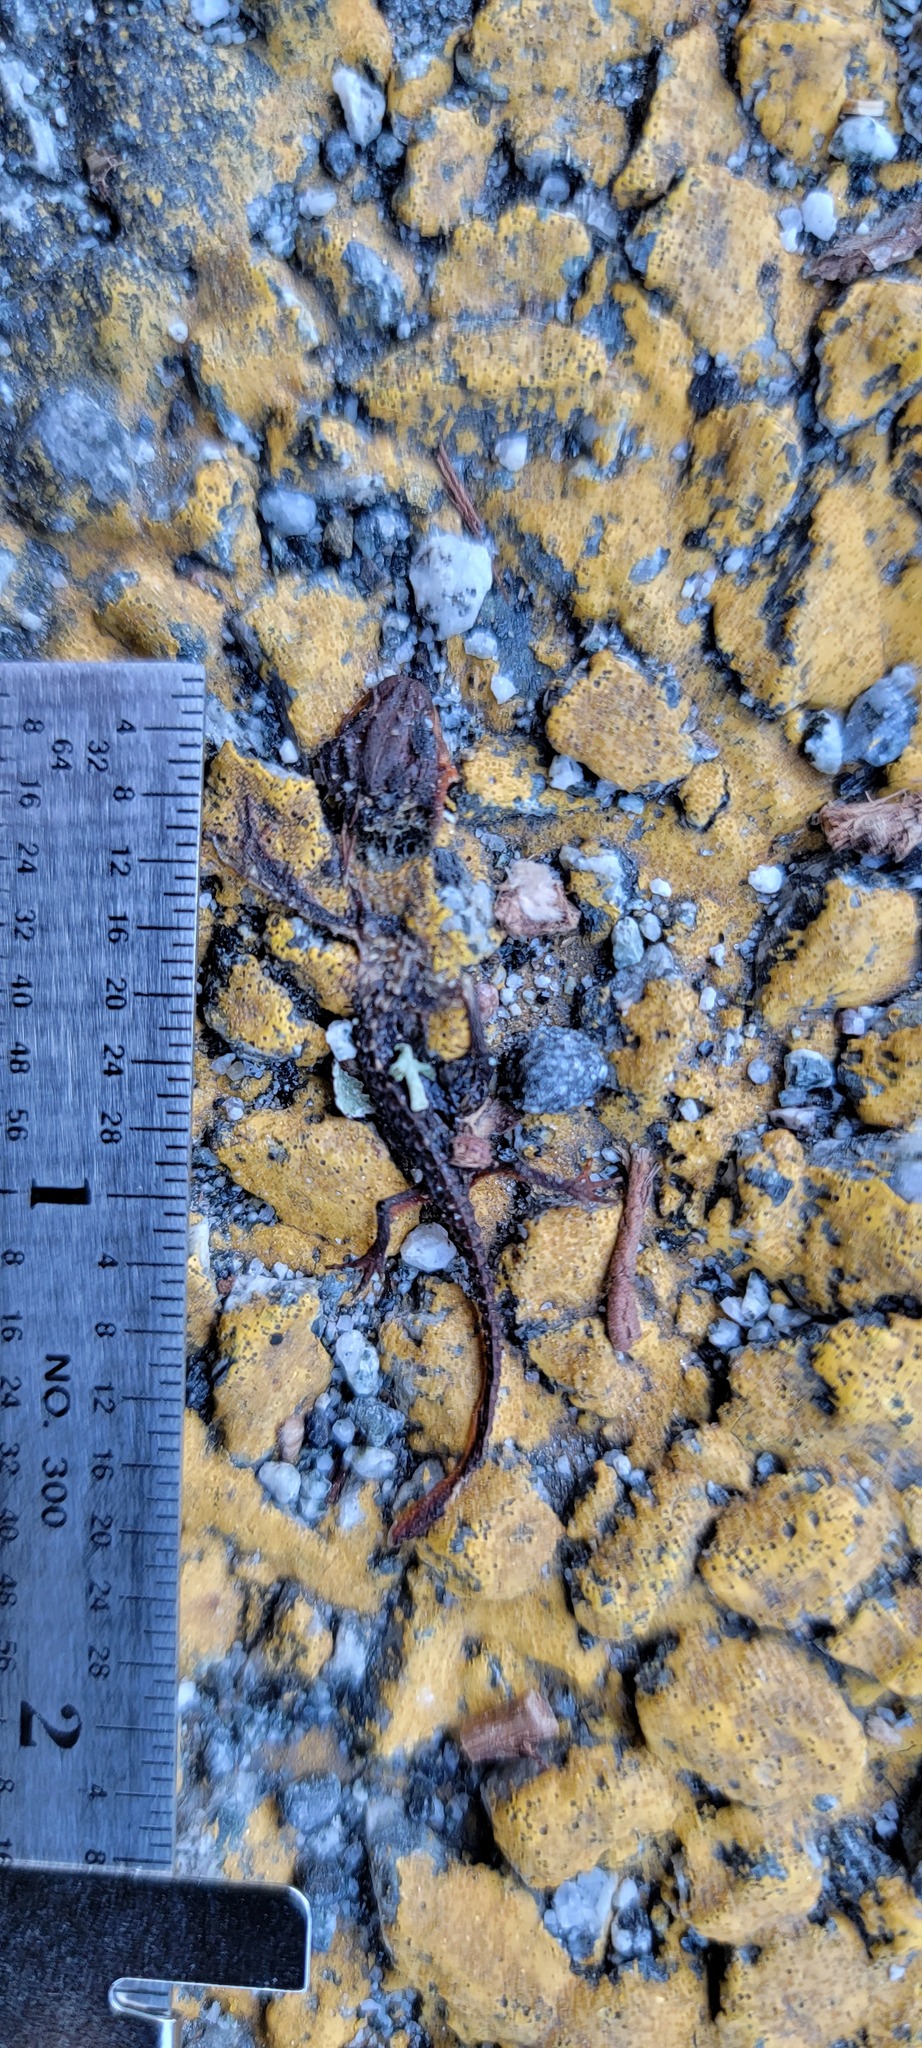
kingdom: Animalia
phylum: Chordata
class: Amphibia
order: Caudata
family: Salamandridae
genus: Taricha
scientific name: Taricha
